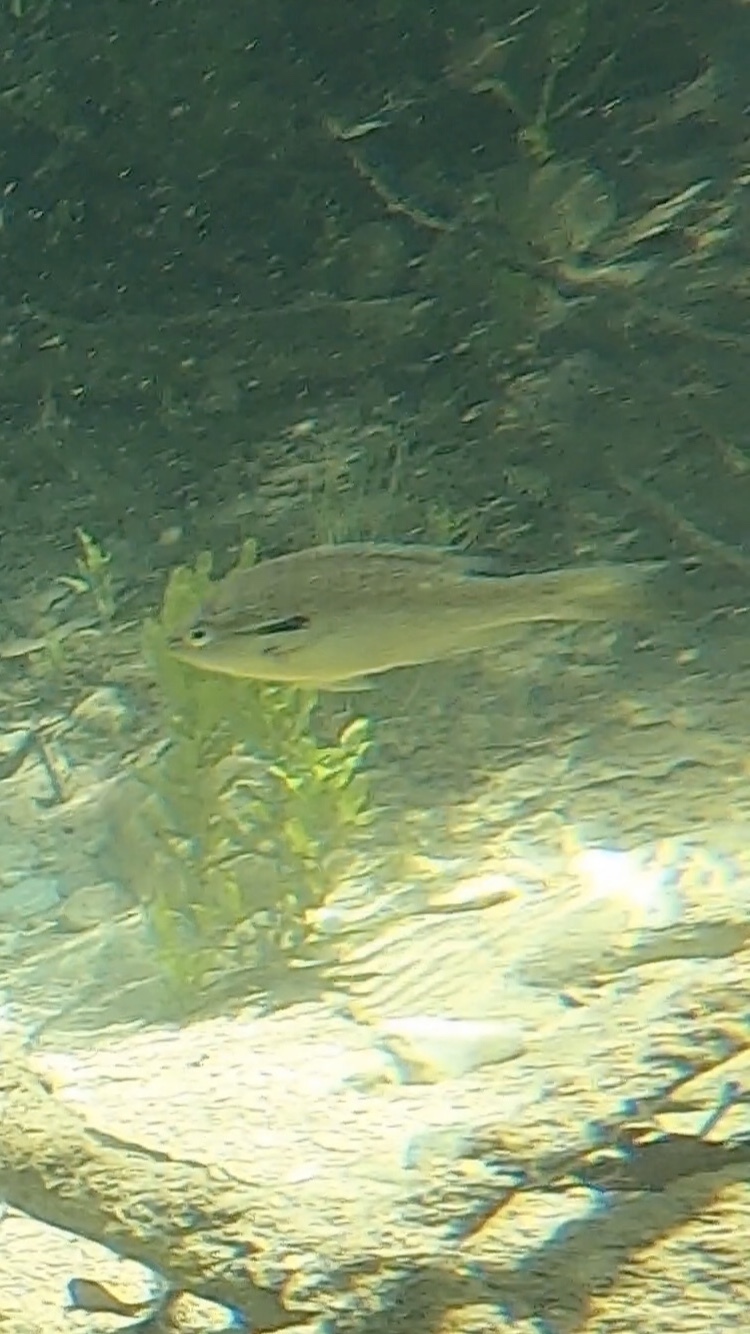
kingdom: Animalia
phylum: Chordata
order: Perciformes
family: Centrarchidae
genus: Lepomis
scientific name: Lepomis auritus
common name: Redbreast sunfish
